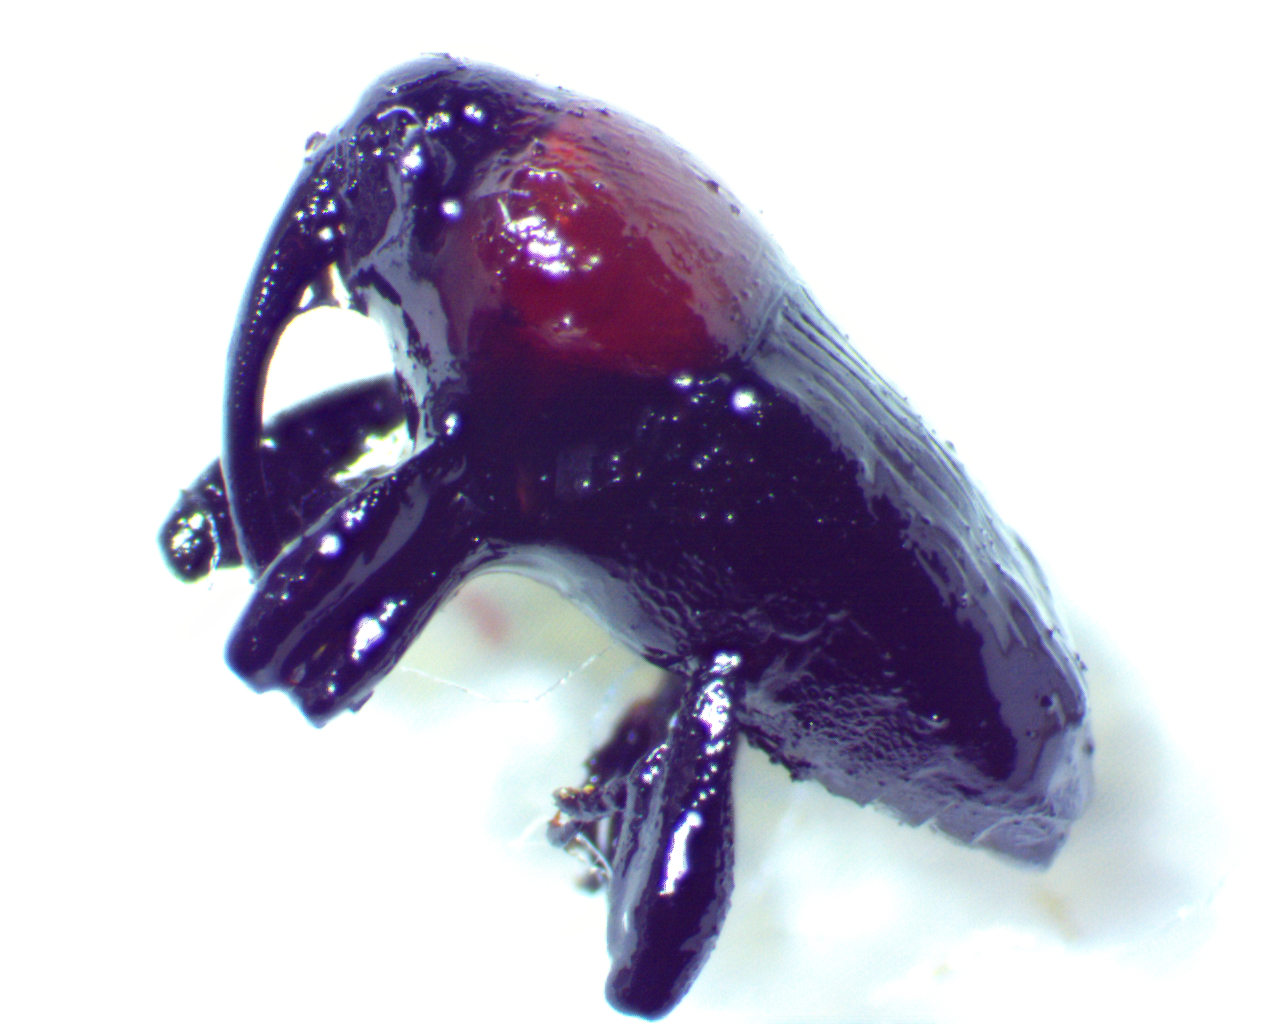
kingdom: Animalia
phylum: Arthropoda
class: Insecta
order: Coleoptera
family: Curculionidae
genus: Madarellus
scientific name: Madarellus undulatus
